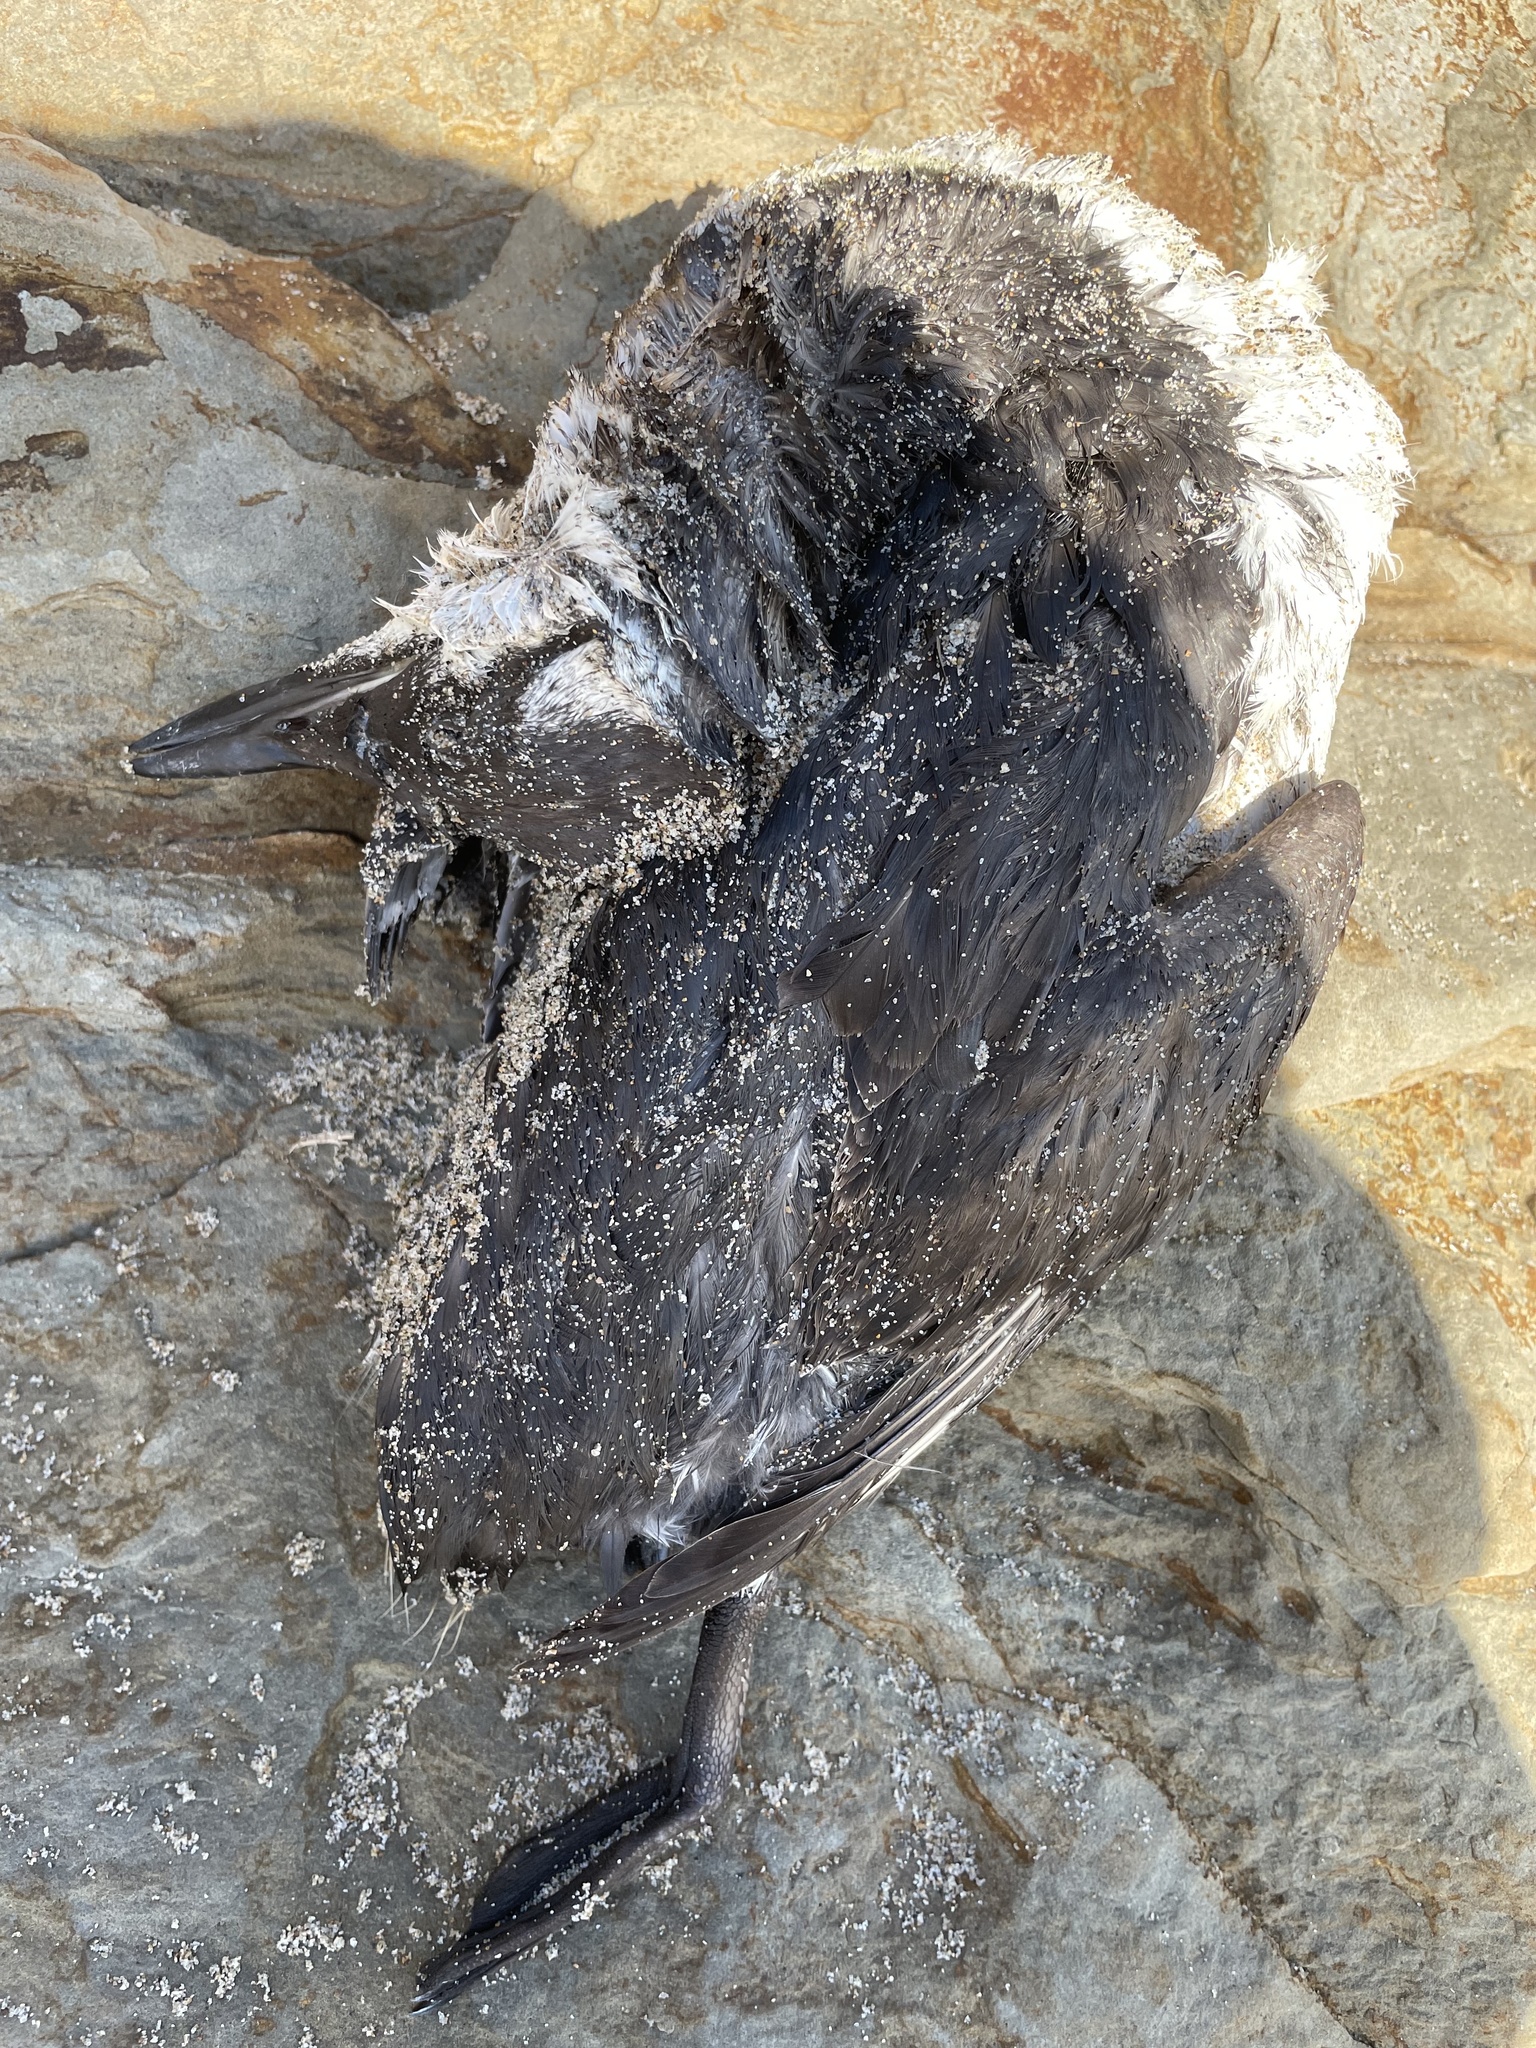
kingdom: Animalia
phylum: Chordata
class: Aves
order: Charadriiformes
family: Alcidae
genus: Uria
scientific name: Uria aalge
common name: Common murre
